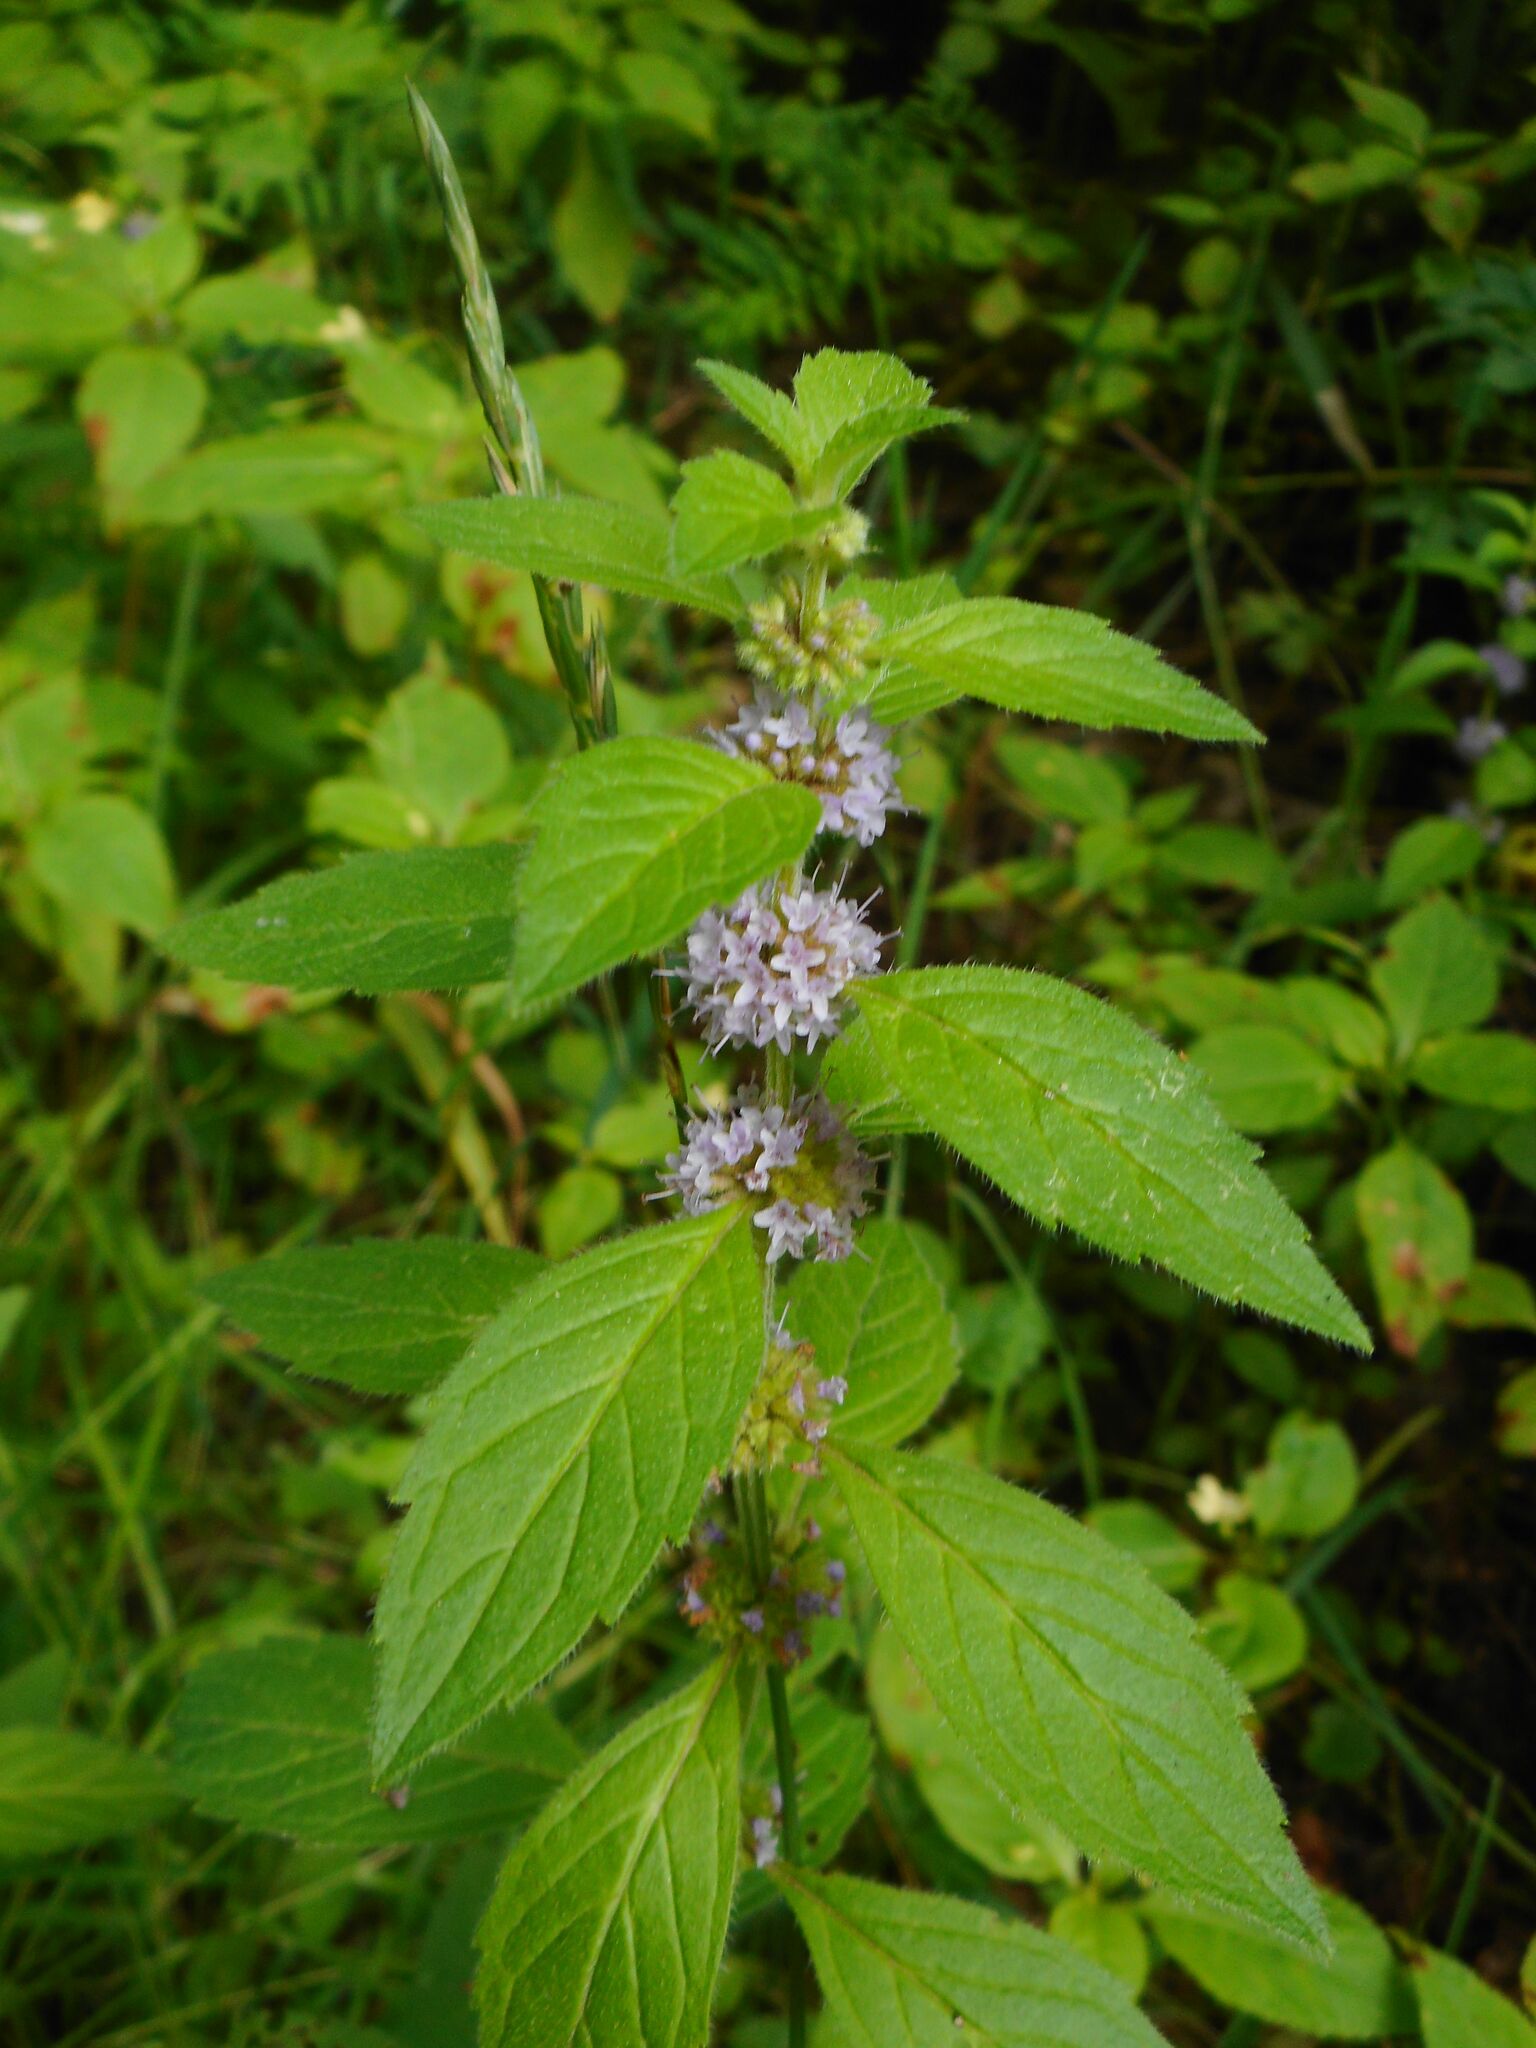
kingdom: Plantae
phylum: Tracheophyta
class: Magnoliopsida
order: Lamiales
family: Lamiaceae
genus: Mentha
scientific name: Mentha arvensis
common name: Corn mint
